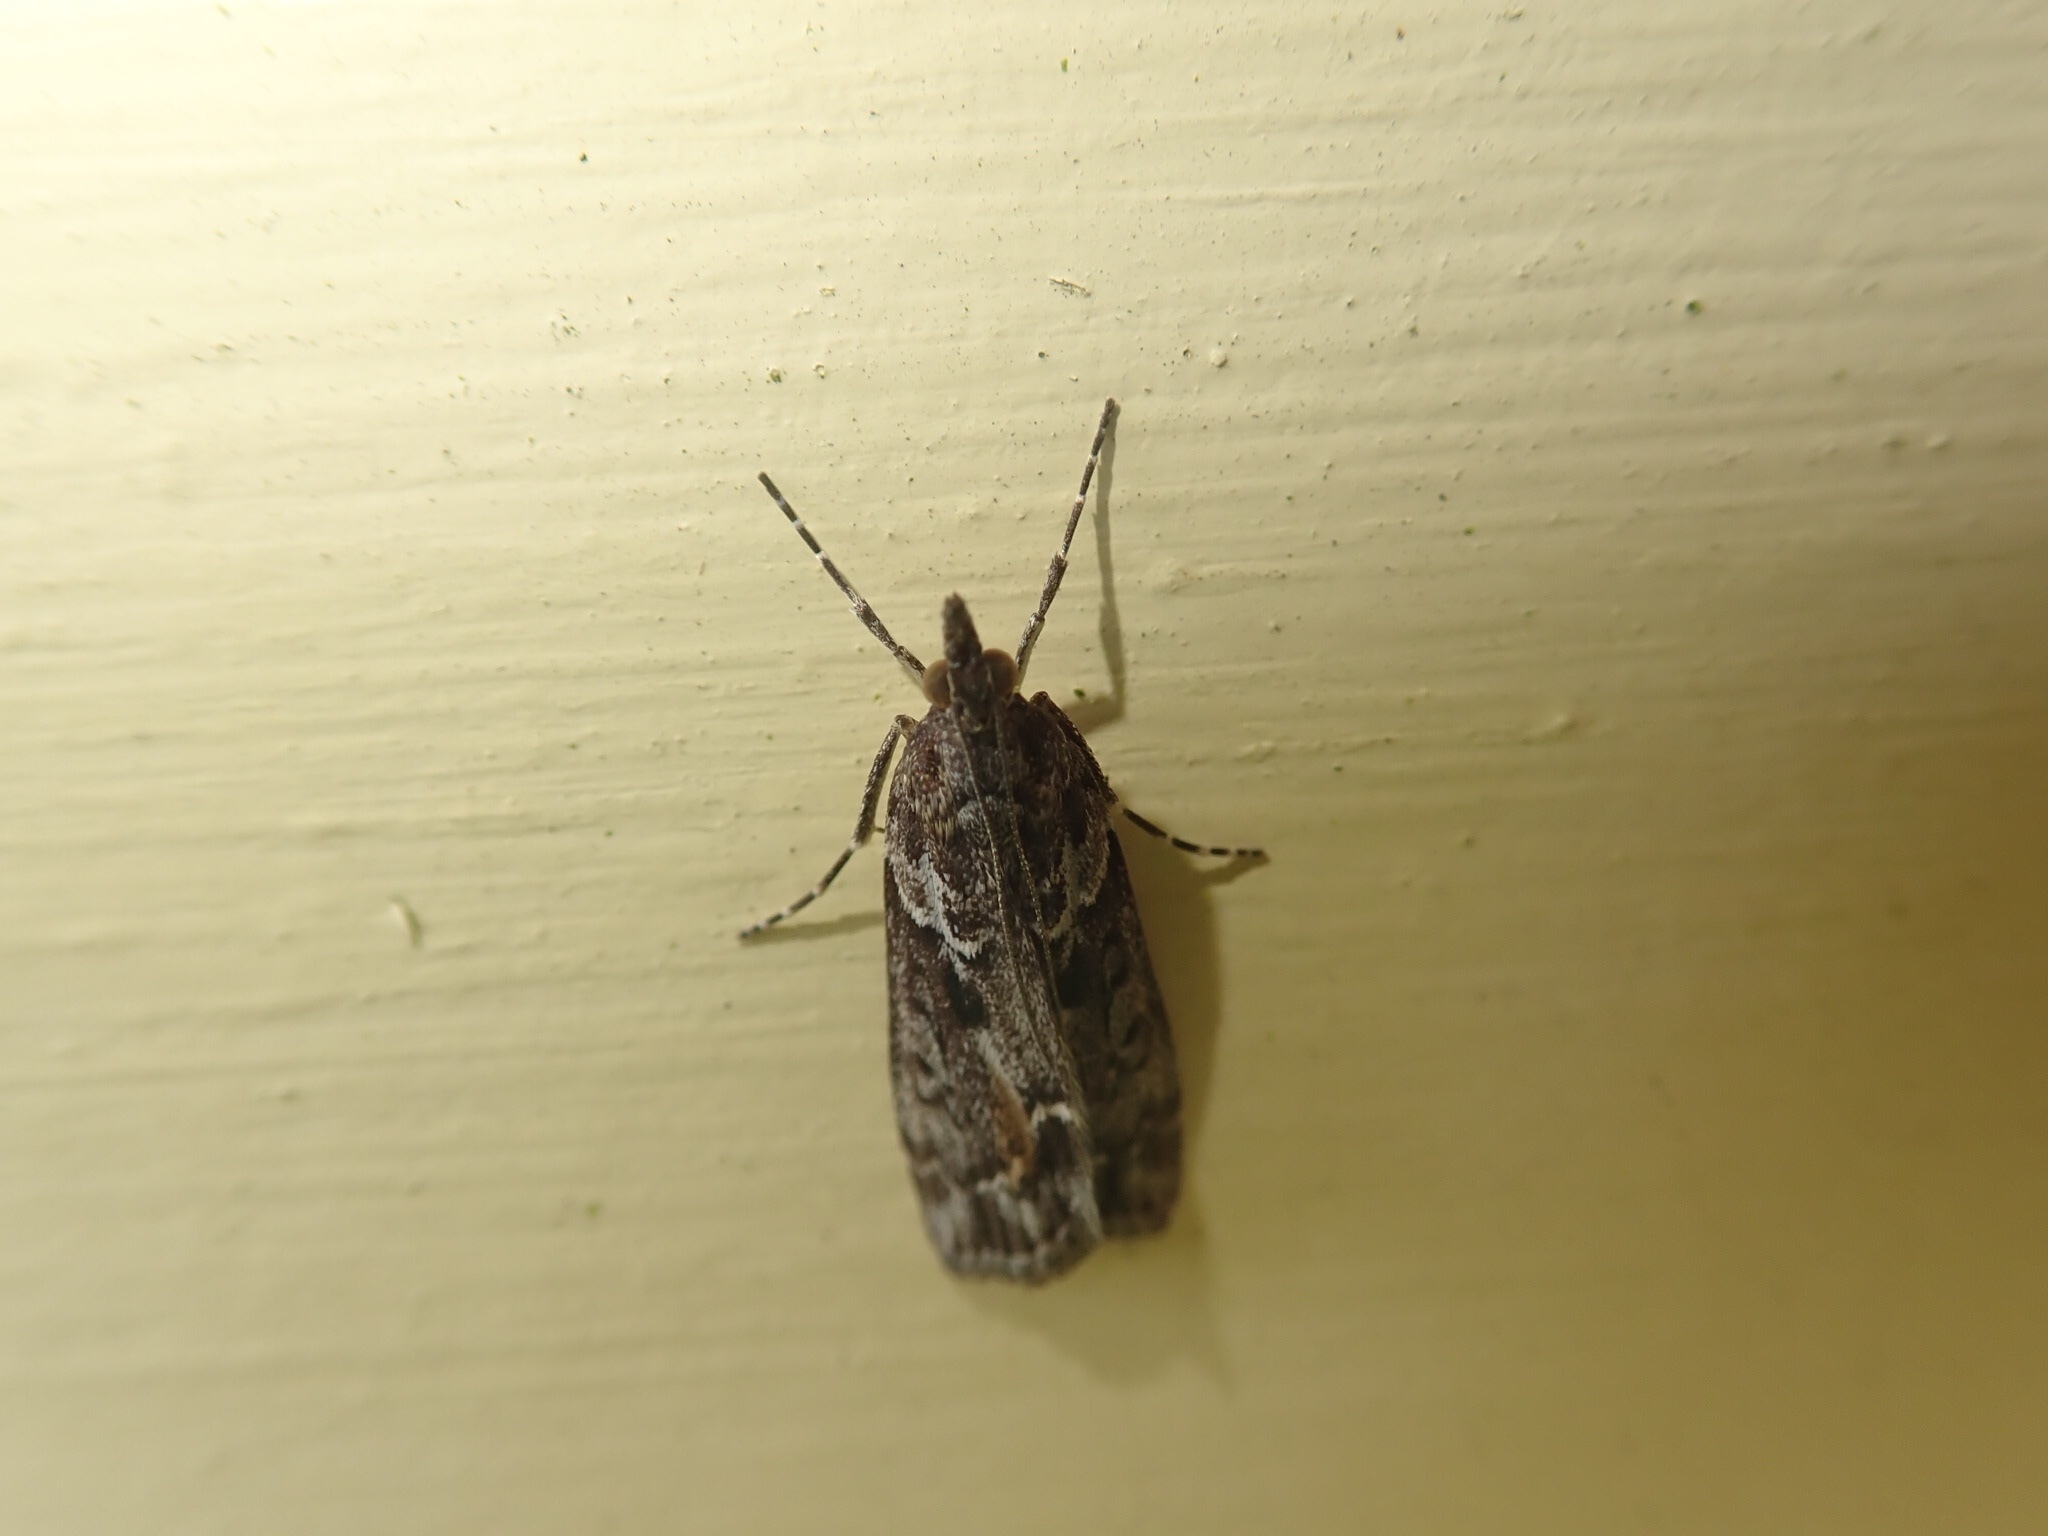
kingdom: Animalia
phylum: Arthropoda
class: Insecta
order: Lepidoptera
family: Crambidae
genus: Eudonia
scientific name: Eudonia submarginalis
